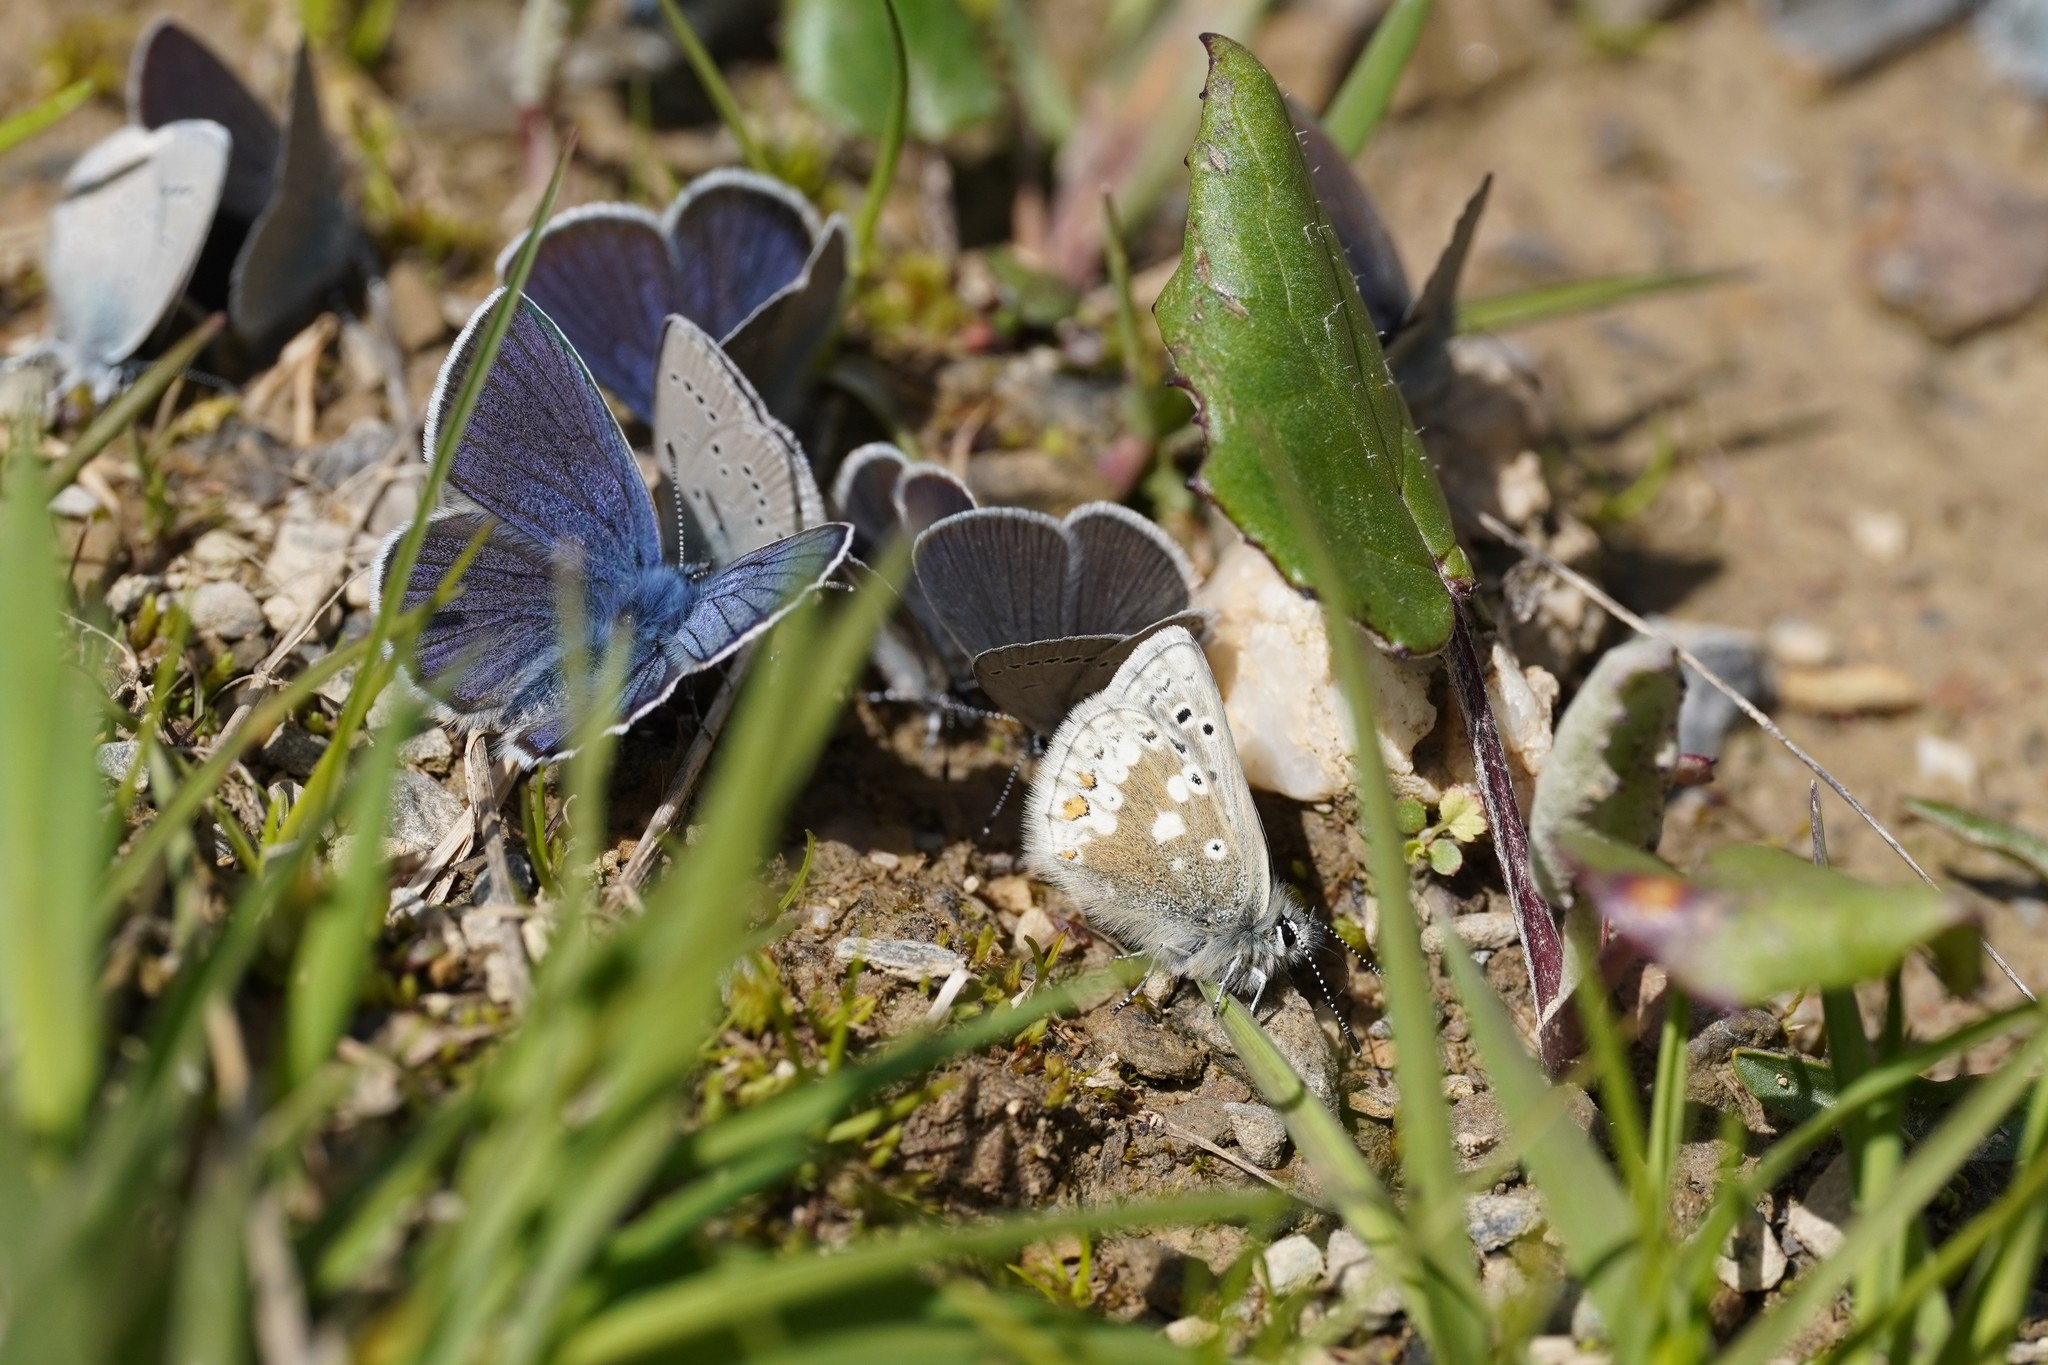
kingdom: Animalia
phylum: Arthropoda
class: Insecta
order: Lepidoptera
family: Lycaenidae
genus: Agriades
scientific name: Agriades glandon
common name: Glandon blue
